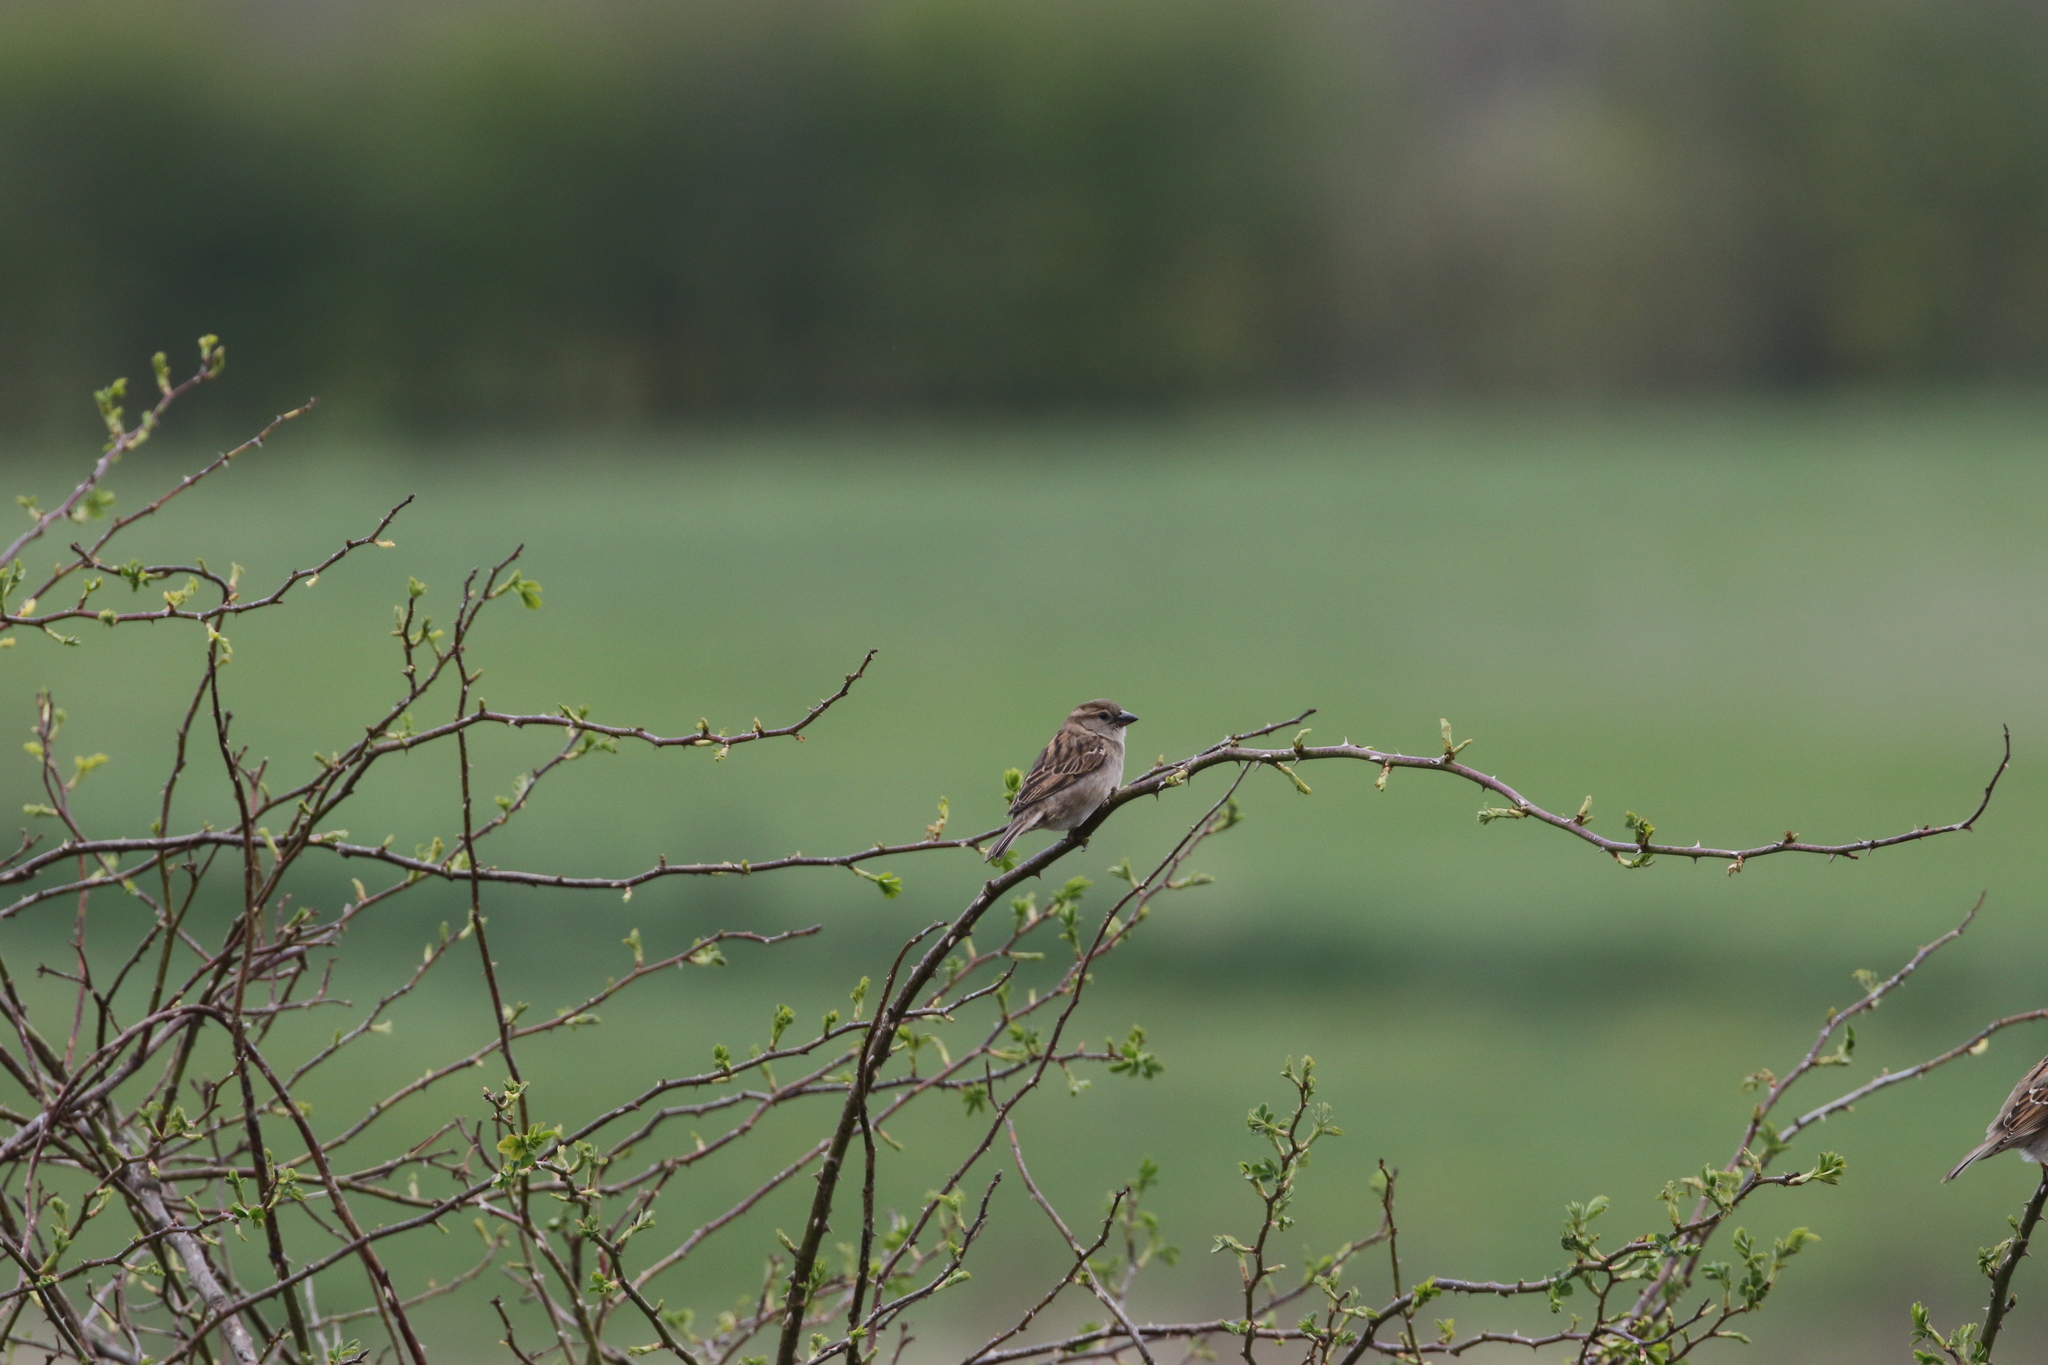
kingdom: Animalia
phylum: Chordata
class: Aves
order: Passeriformes
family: Passeridae
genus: Passer
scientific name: Passer domesticus
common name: House sparrow
